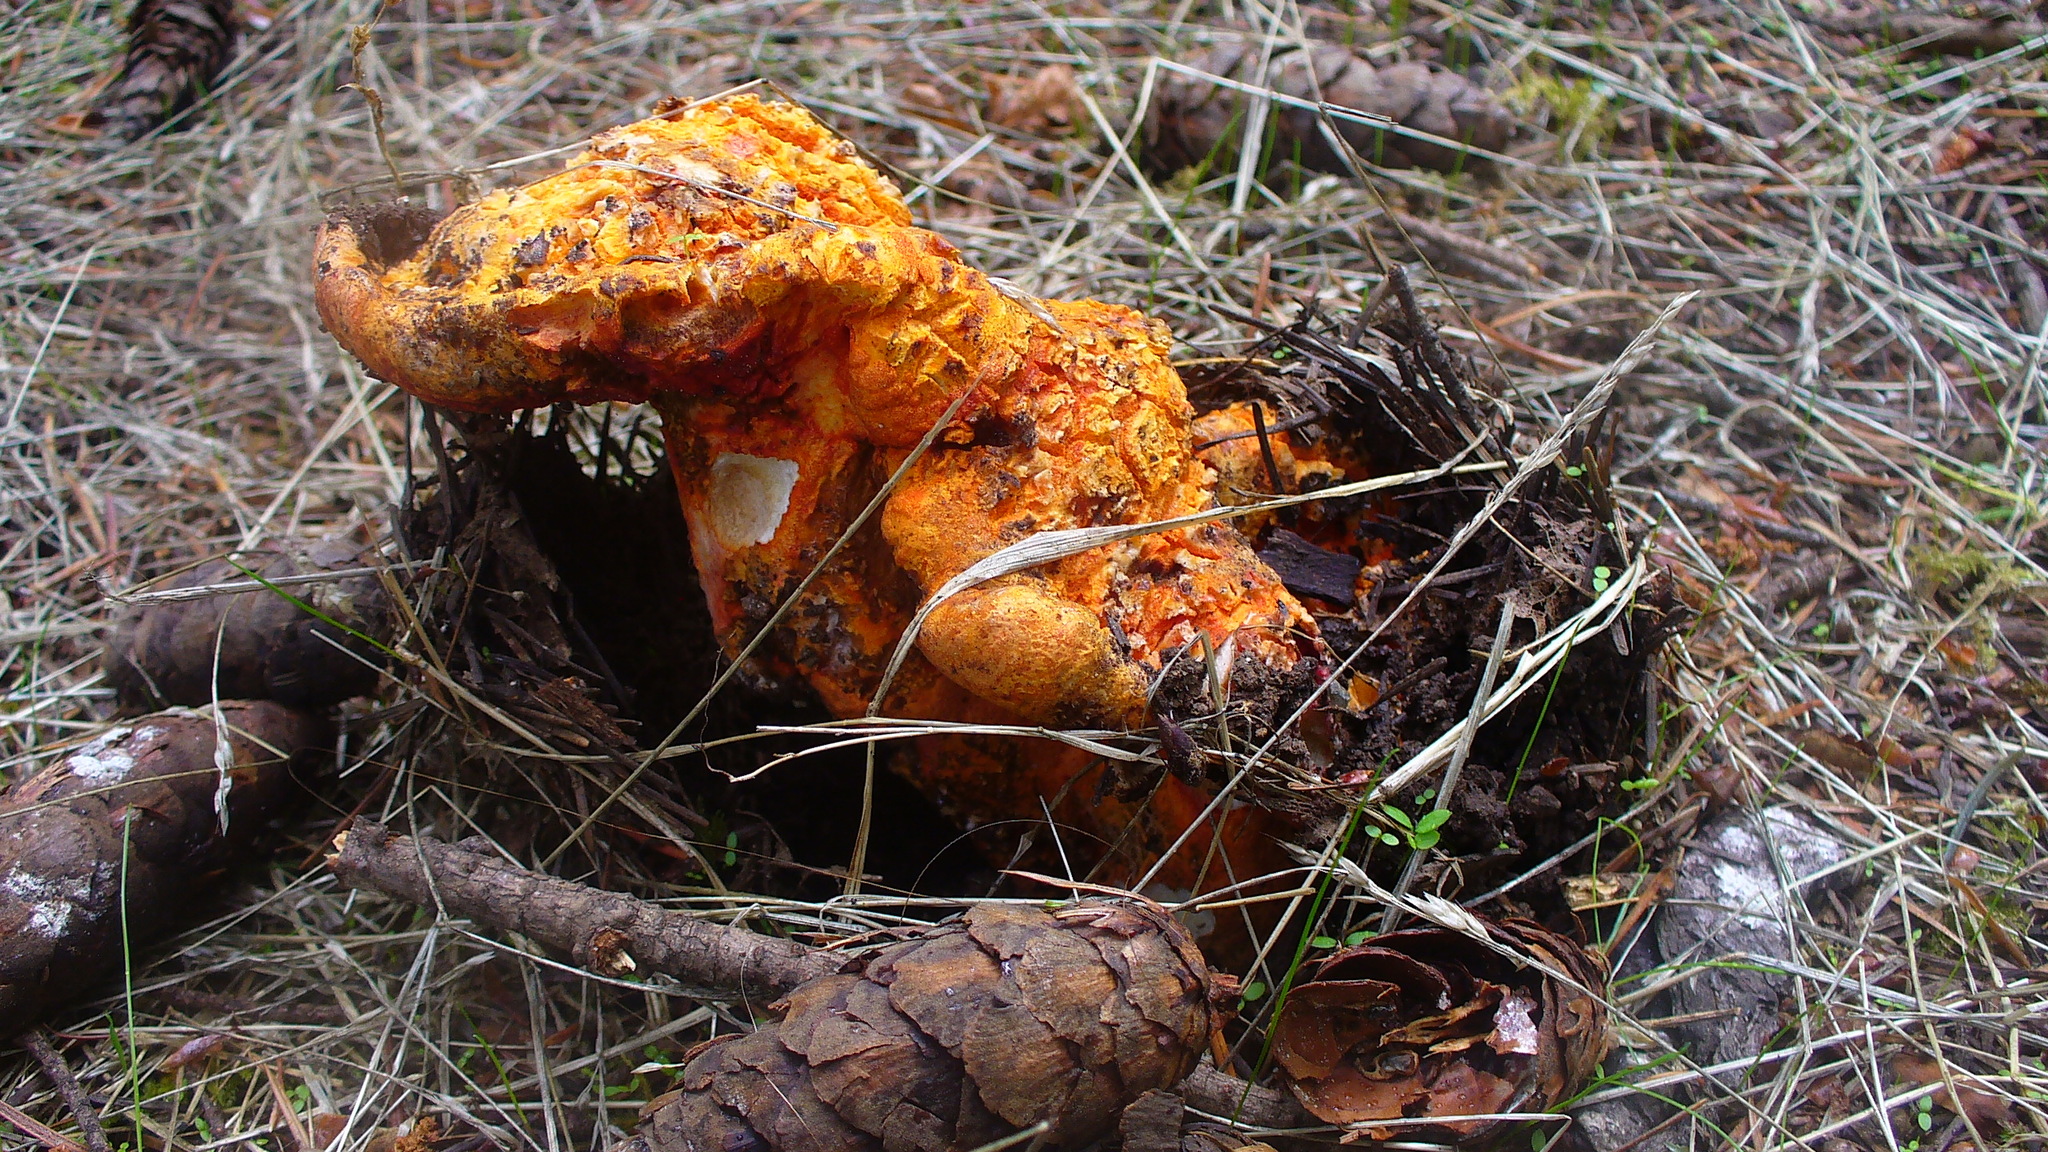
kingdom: Fungi
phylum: Ascomycota
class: Sordariomycetes
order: Hypocreales
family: Hypocreaceae
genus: Hypomyces
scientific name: Hypomyces lactifluorum
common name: Lobster mushroom
